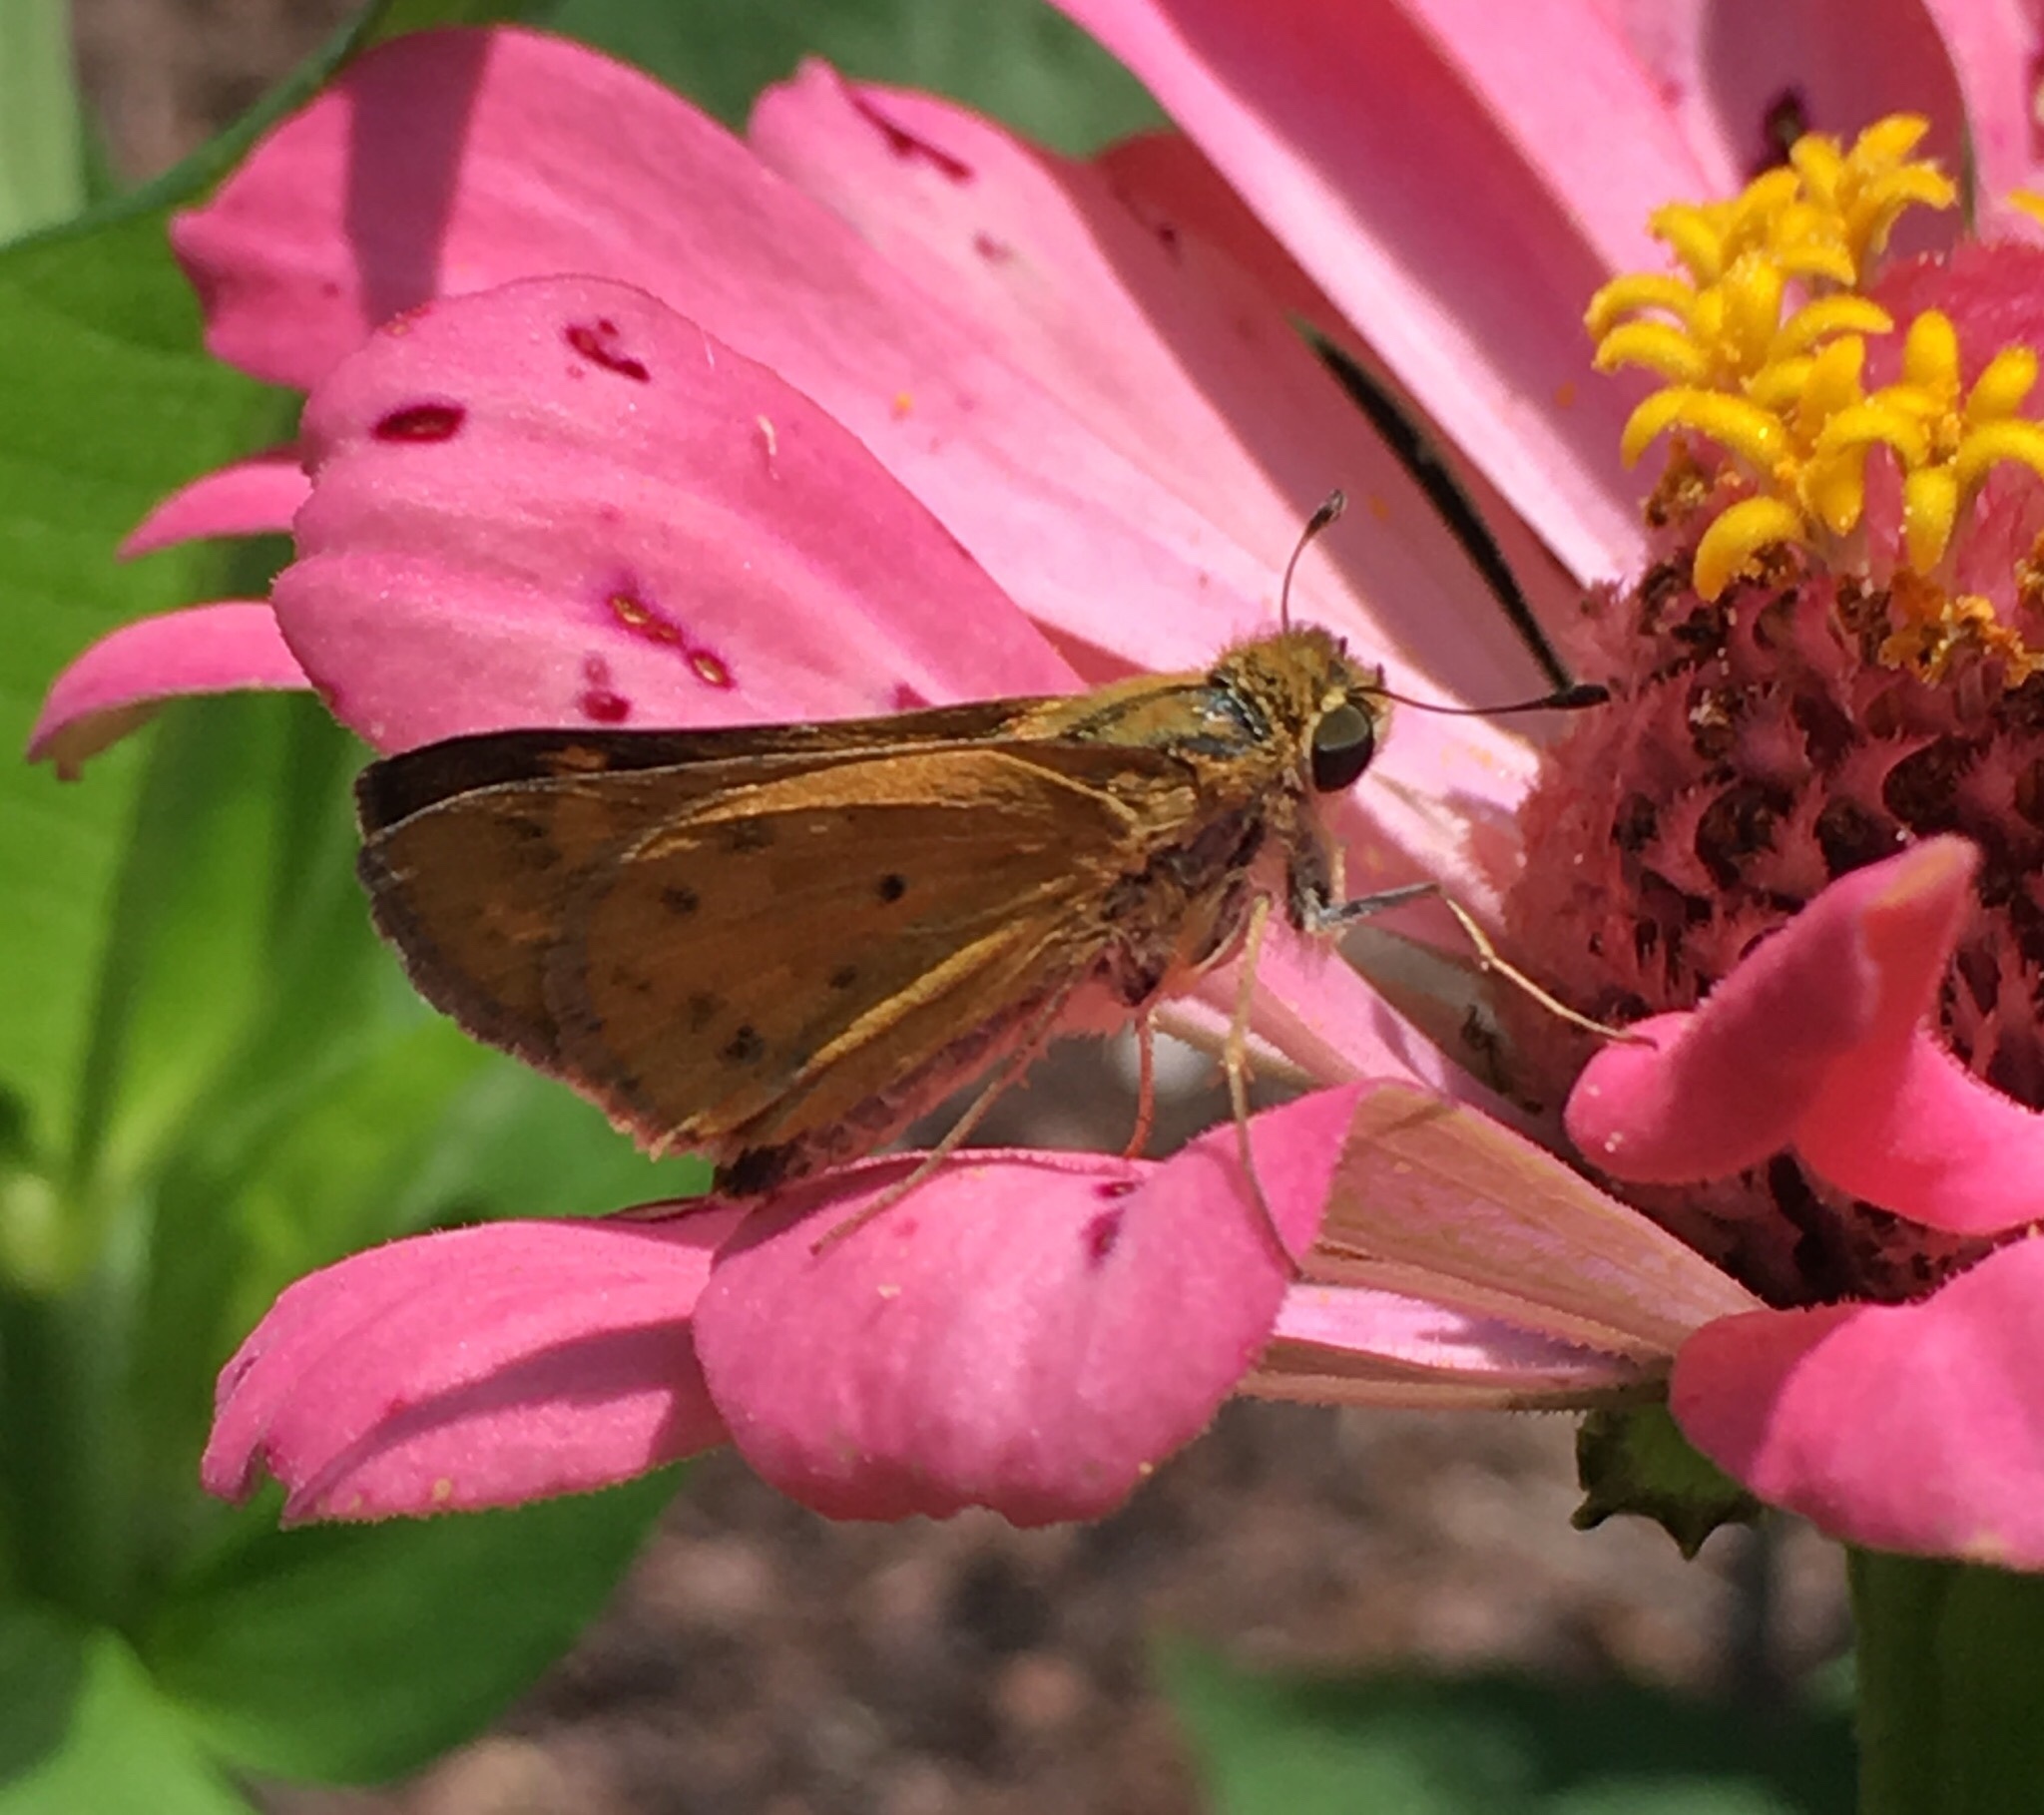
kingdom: Animalia
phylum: Arthropoda
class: Insecta
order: Lepidoptera
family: Hesperiidae
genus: Hylephila
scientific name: Hylephila phyleus
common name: Fiery skipper
